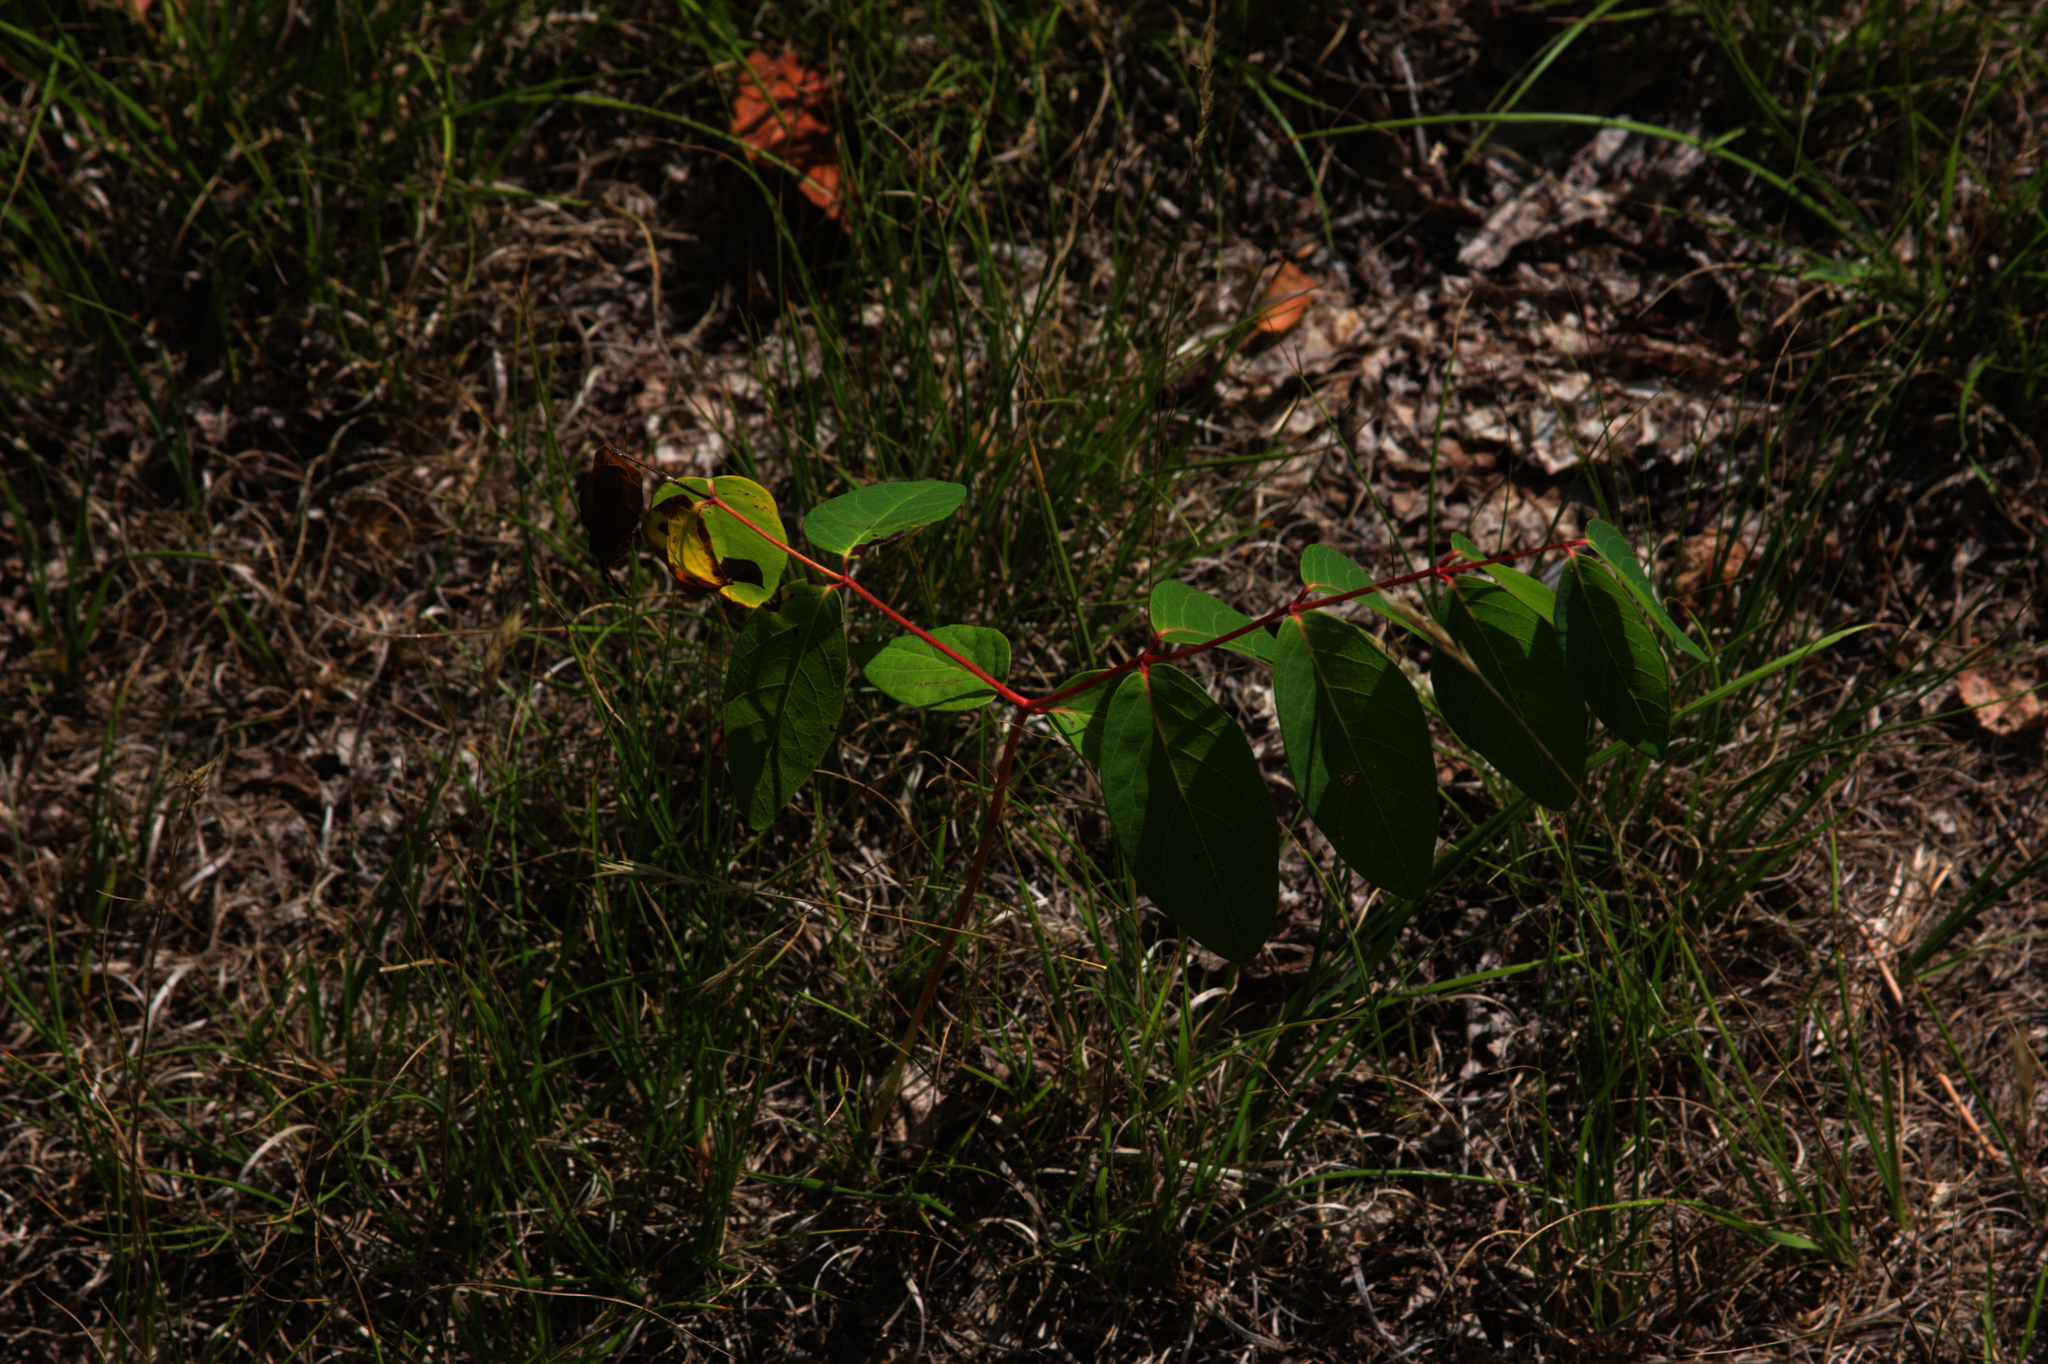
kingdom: Plantae
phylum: Tracheophyta
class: Magnoliopsida
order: Gentianales
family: Apocynaceae
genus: Apocynum
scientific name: Apocynum androsaemifolium
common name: Spreading dogbane
